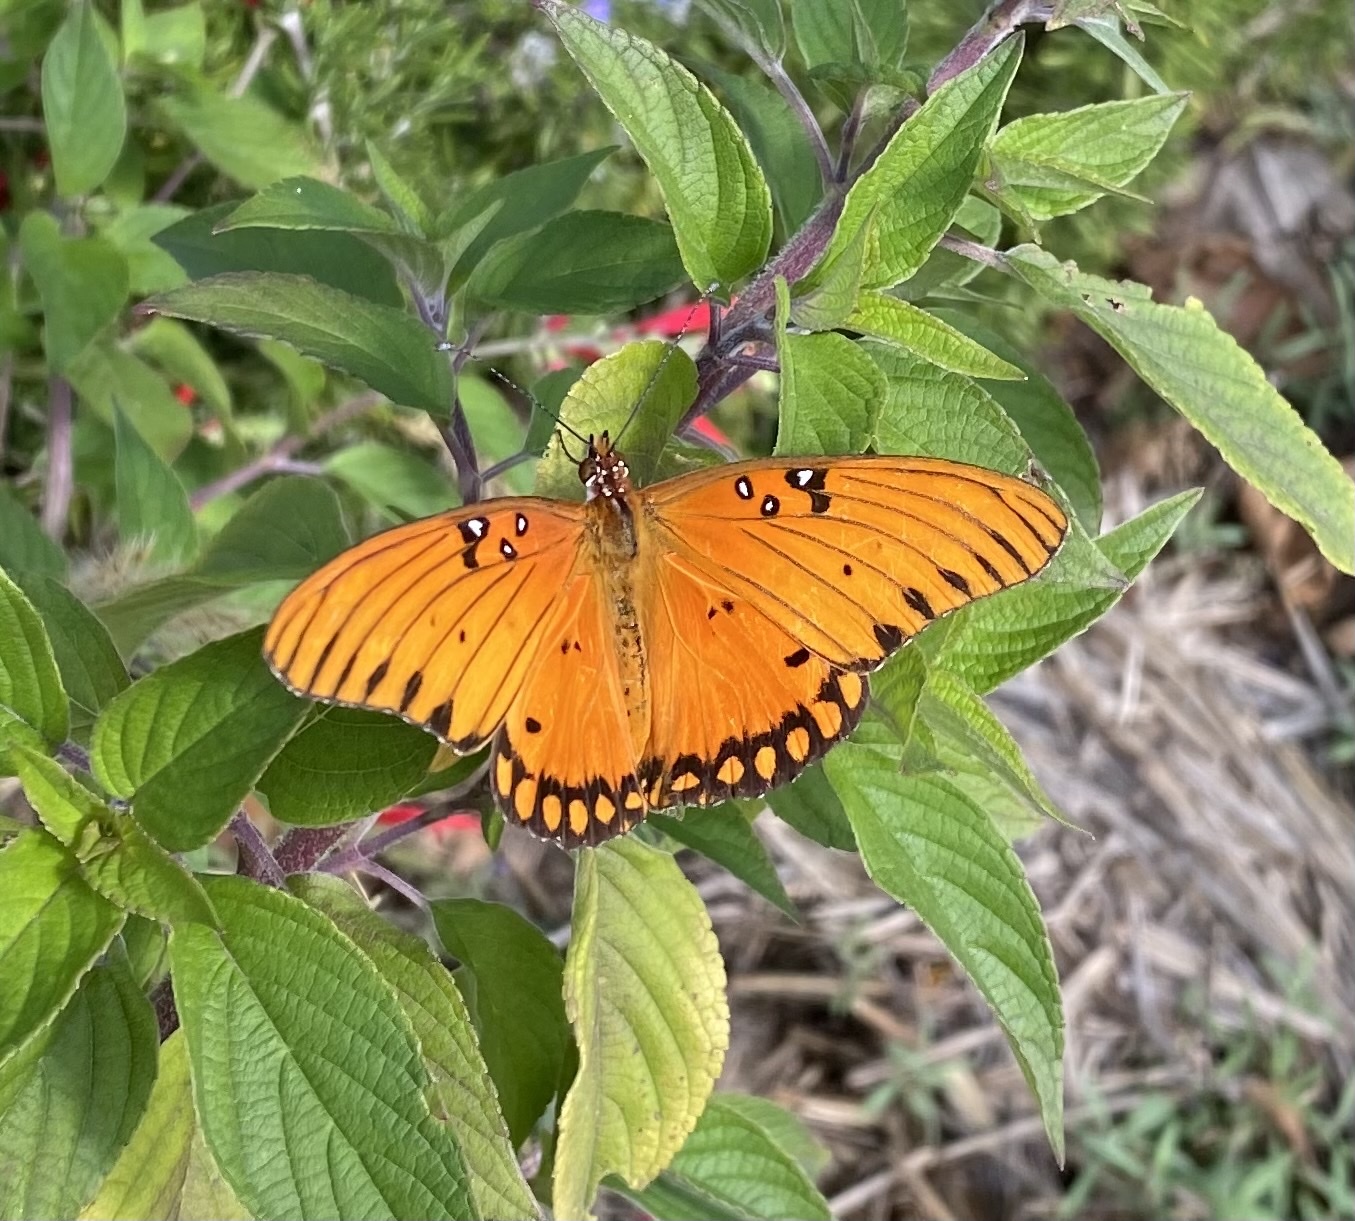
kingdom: Animalia
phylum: Arthropoda
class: Insecta
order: Lepidoptera
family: Nymphalidae
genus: Dione
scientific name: Dione vanillae
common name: Gulf fritillary
